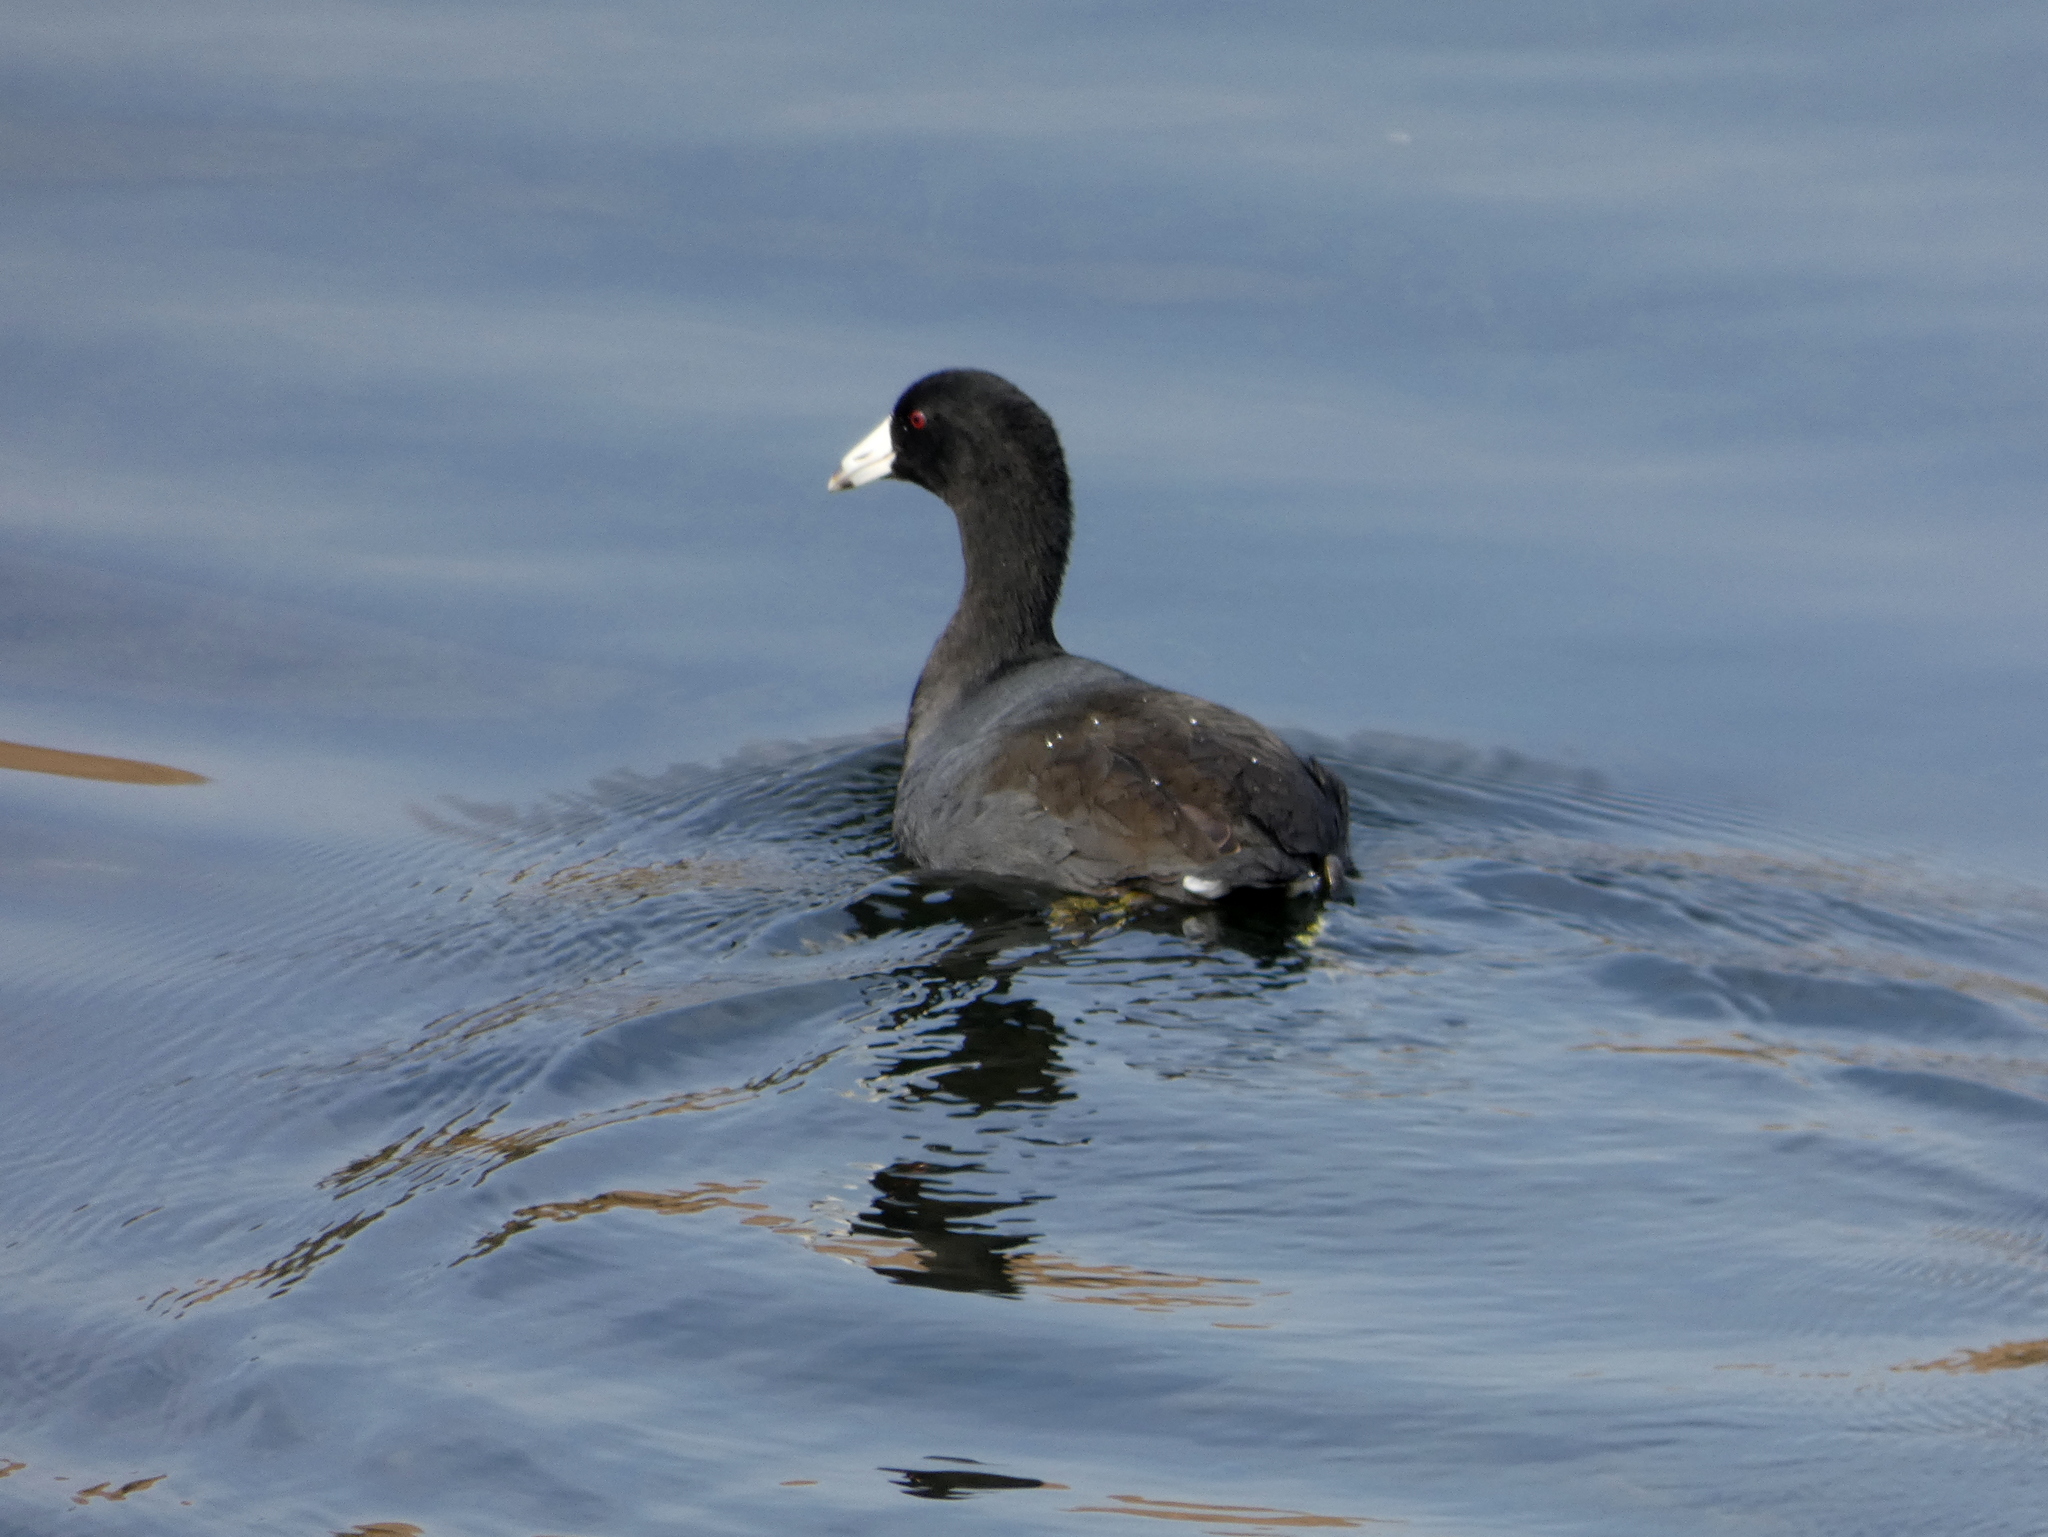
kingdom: Animalia
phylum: Chordata
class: Aves
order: Gruiformes
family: Rallidae
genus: Fulica
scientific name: Fulica americana
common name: American coot
